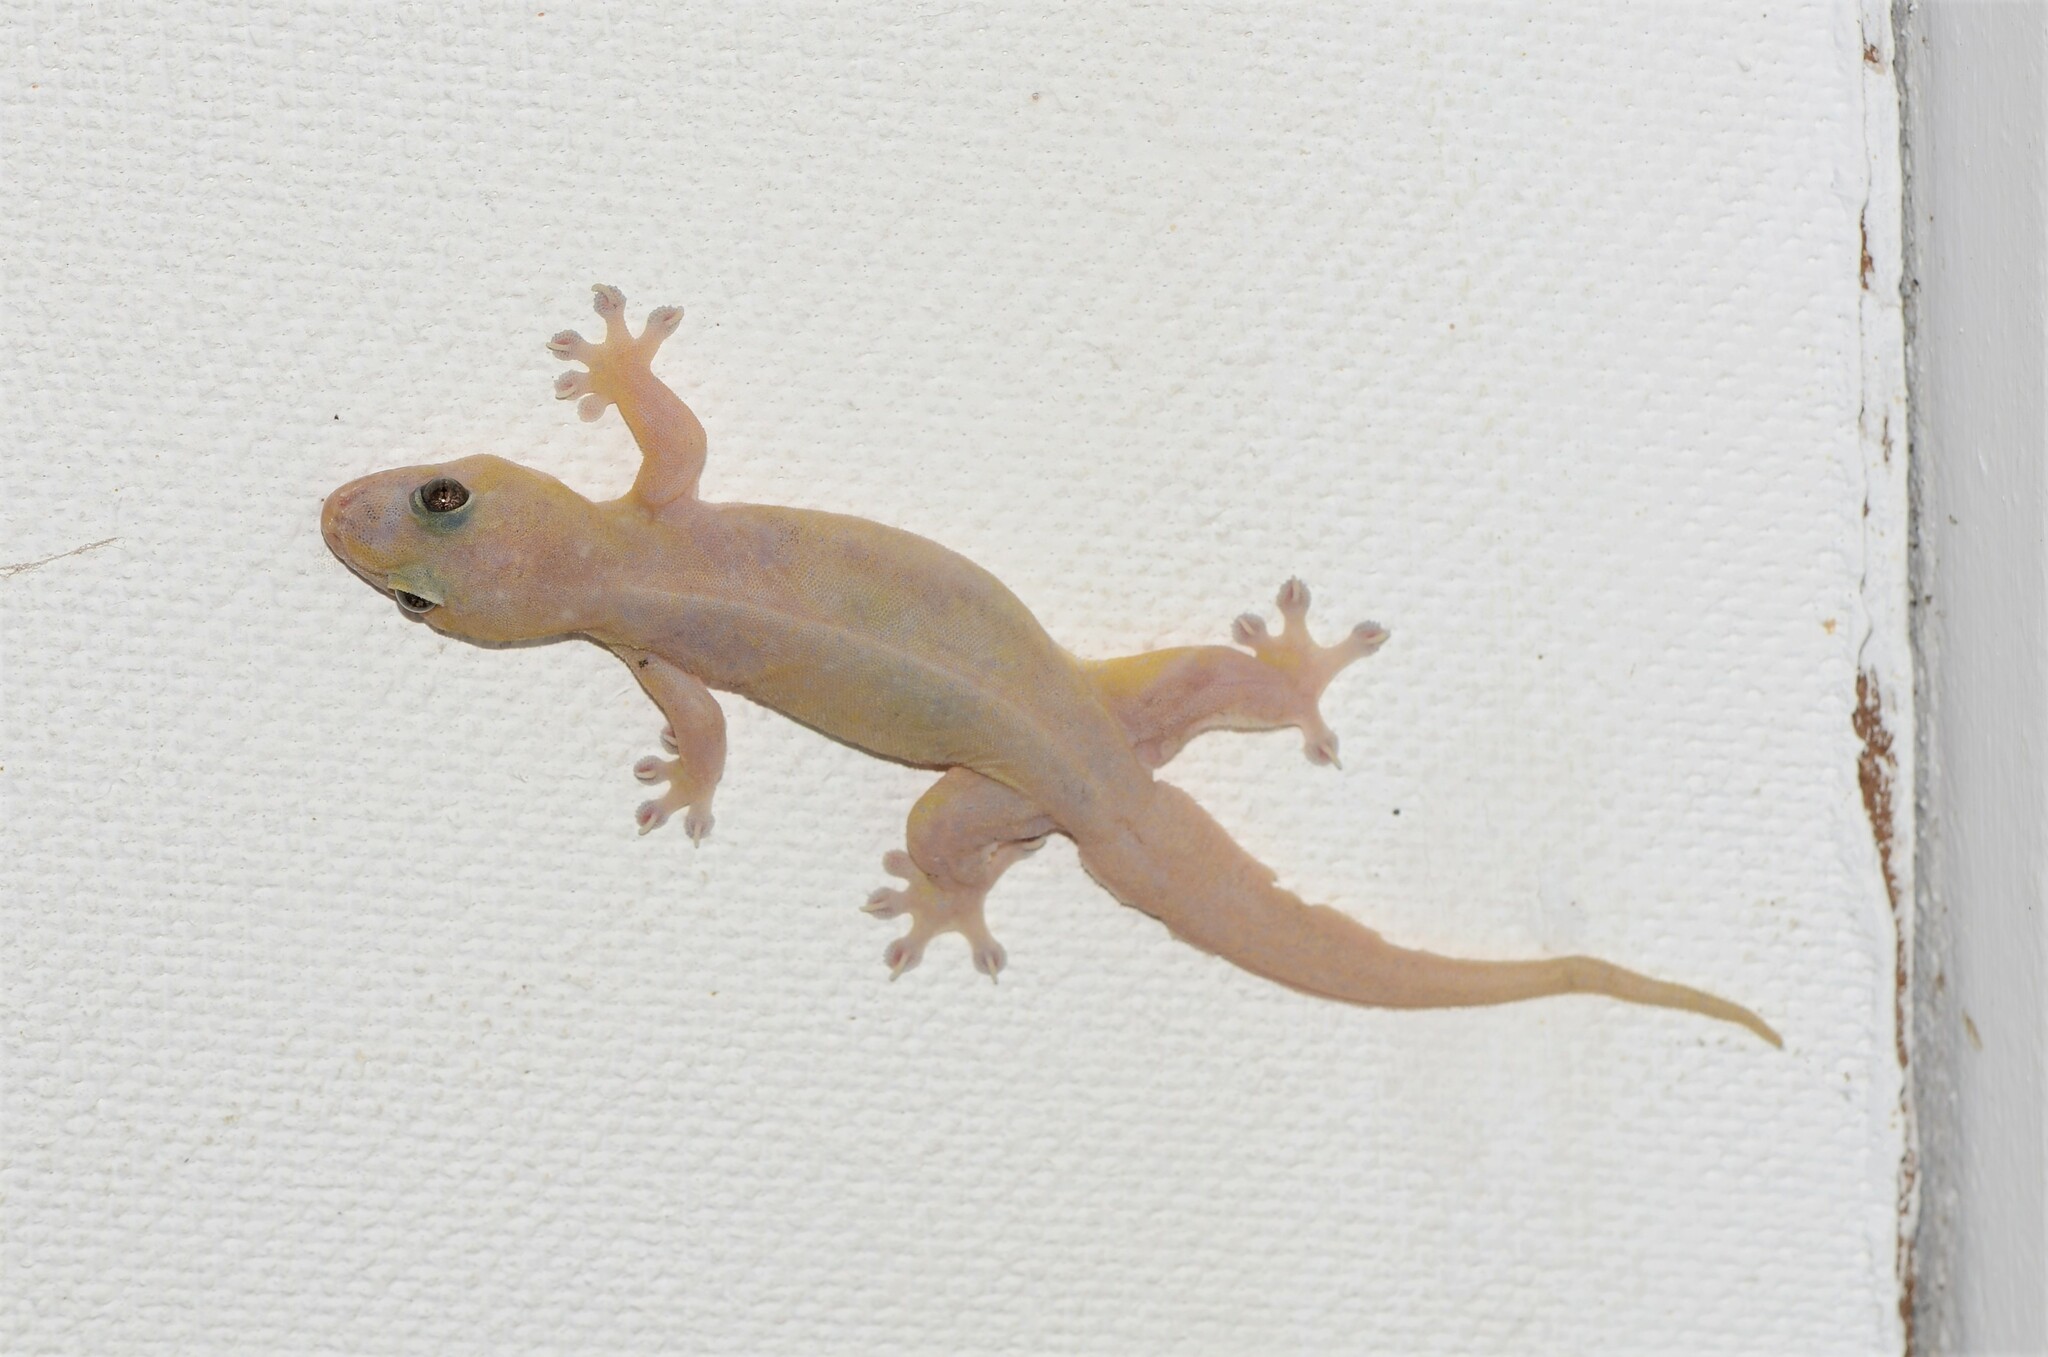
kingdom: Animalia
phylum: Chordata
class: Squamata
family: Gekkonidae
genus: Gehyra
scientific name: Gehyra mutilata
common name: Stump-toed gecko
